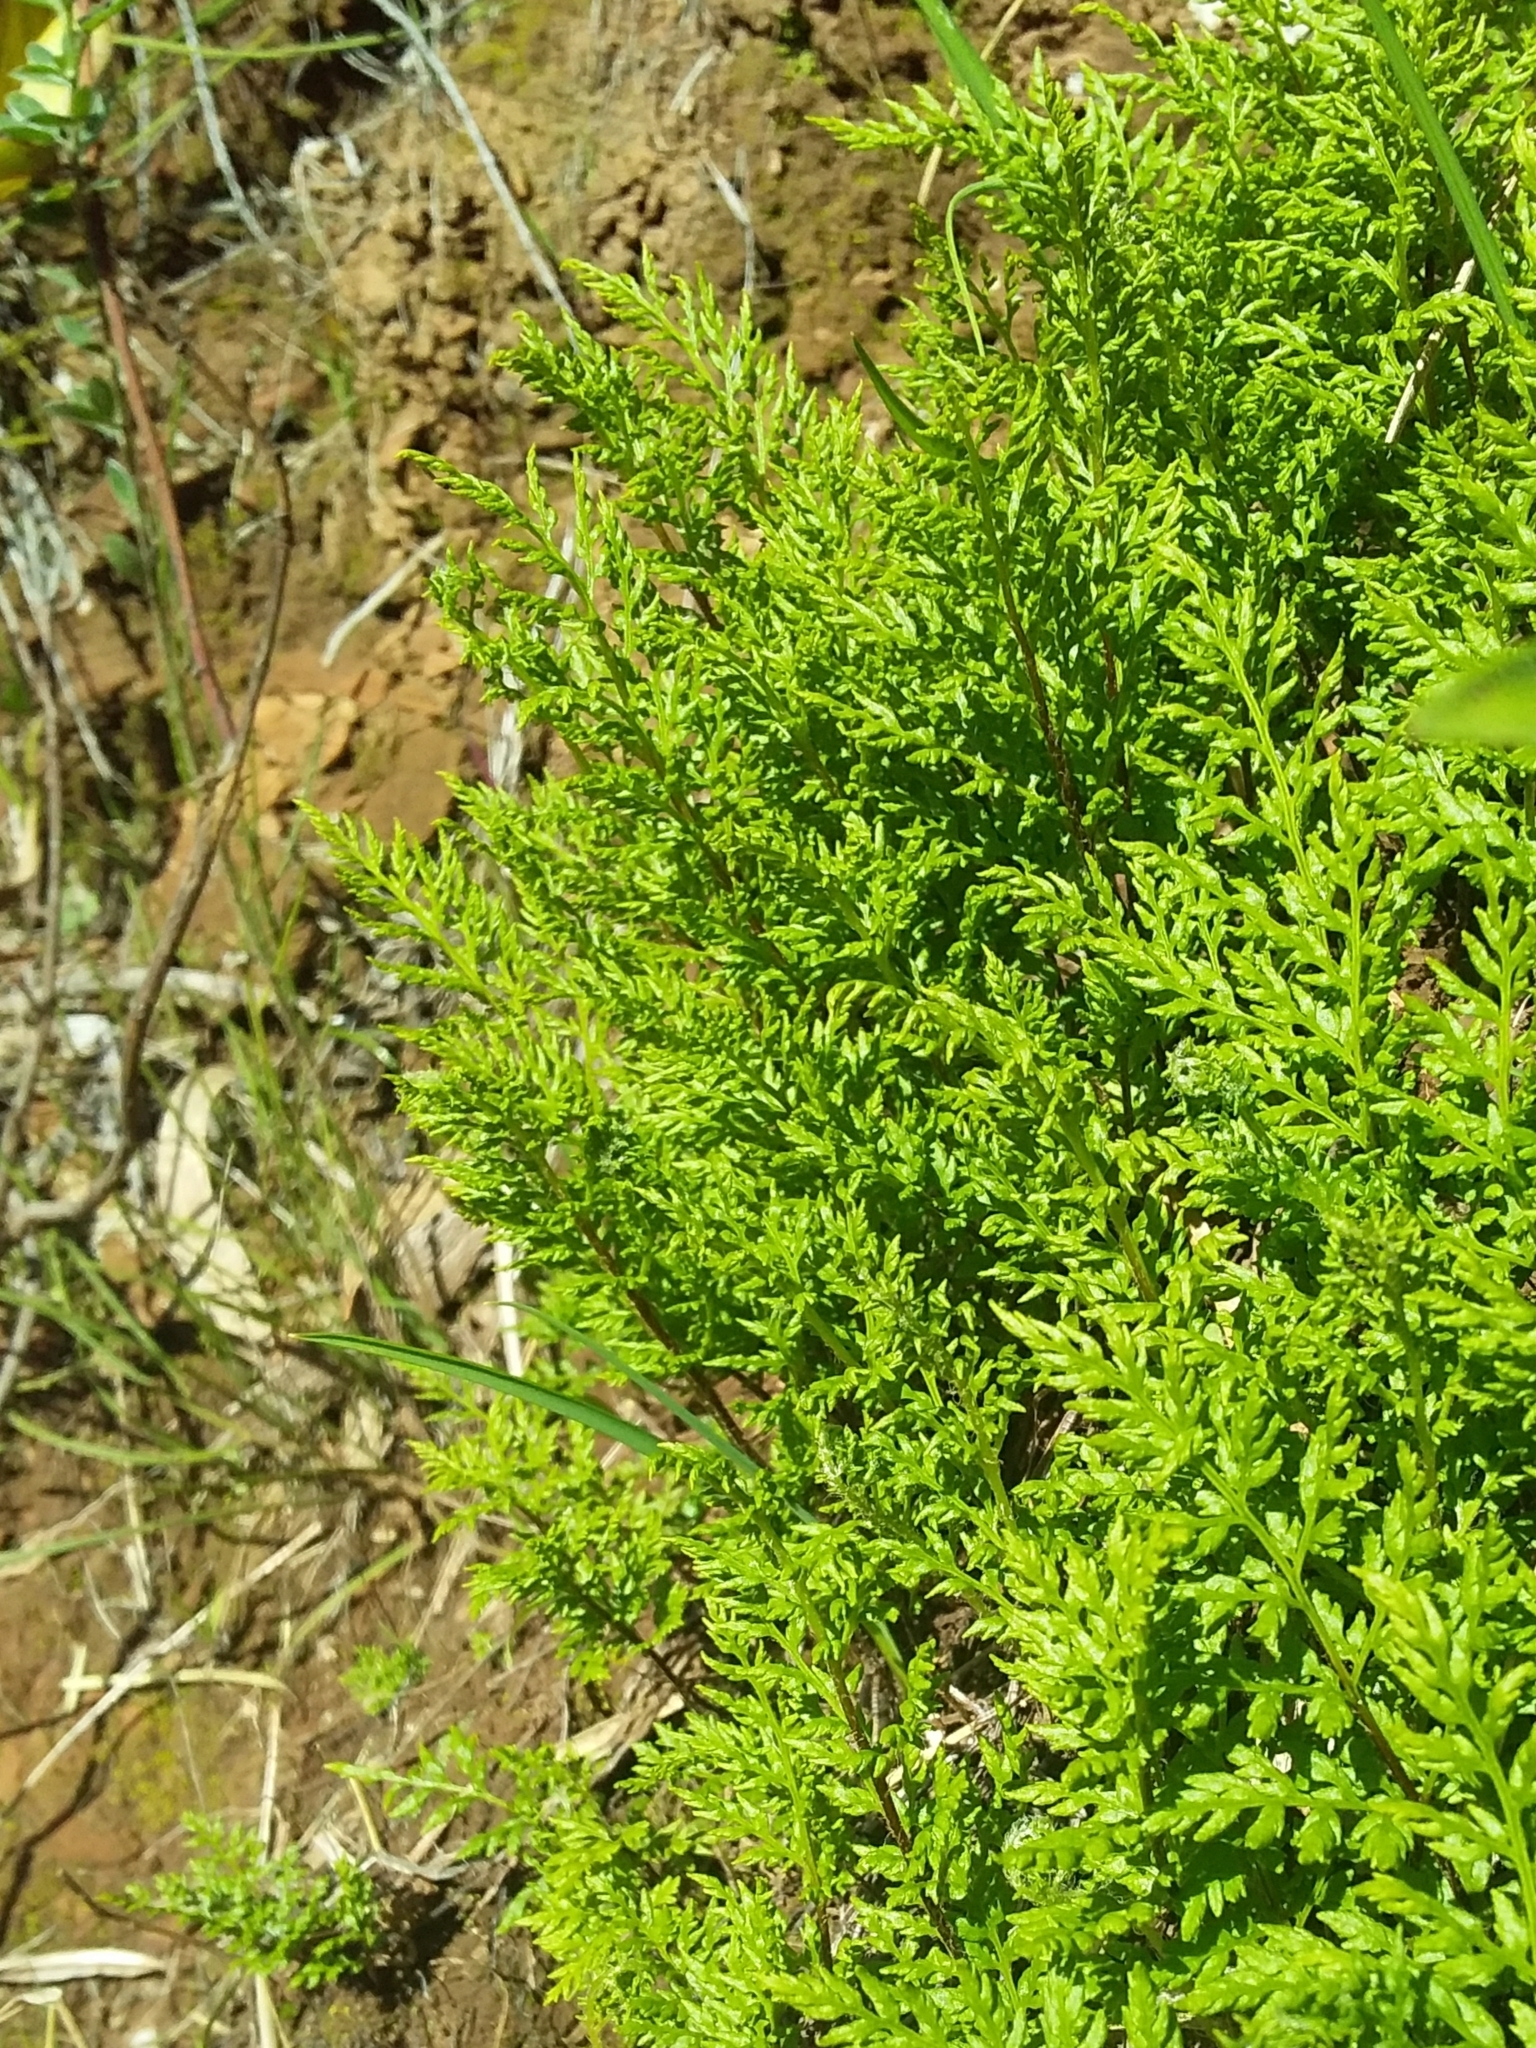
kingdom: Plantae
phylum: Tracheophyta
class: Polypodiopsida
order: Polypodiales
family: Pteridaceae
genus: Cheilanthes
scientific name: Cheilanthes austrotenuifolia
